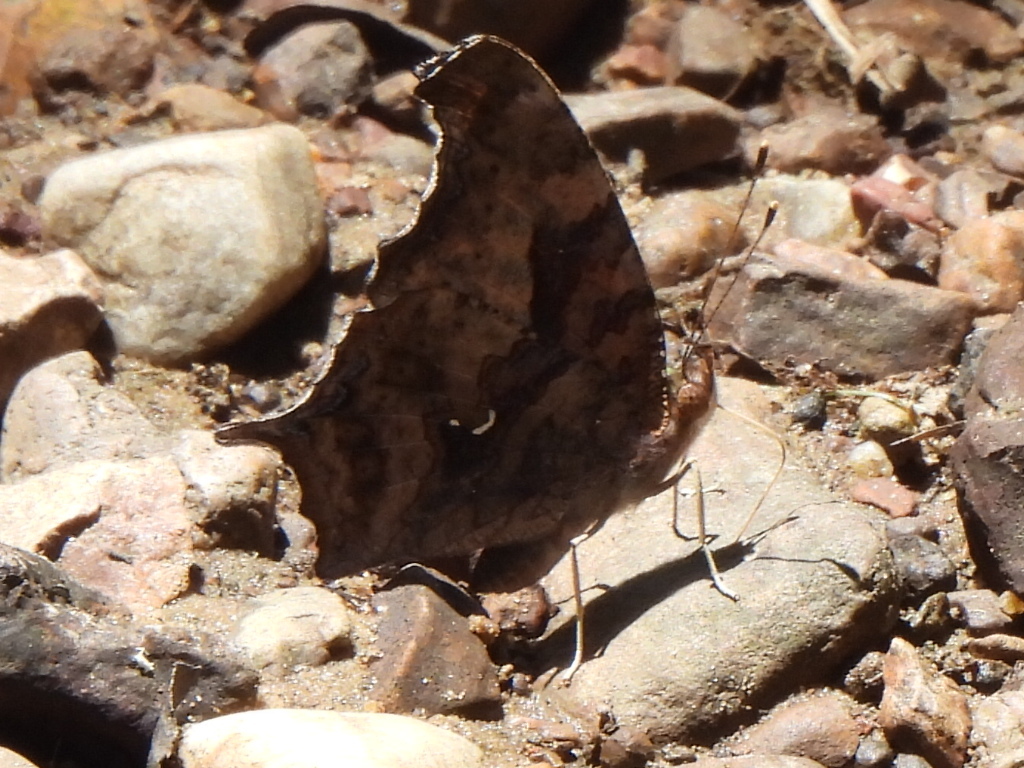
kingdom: Animalia
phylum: Arthropoda
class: Insecta
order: Lepidoptera
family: Nymphalidae
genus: Polygonia
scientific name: Polygonia interrogationis
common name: Question mark
